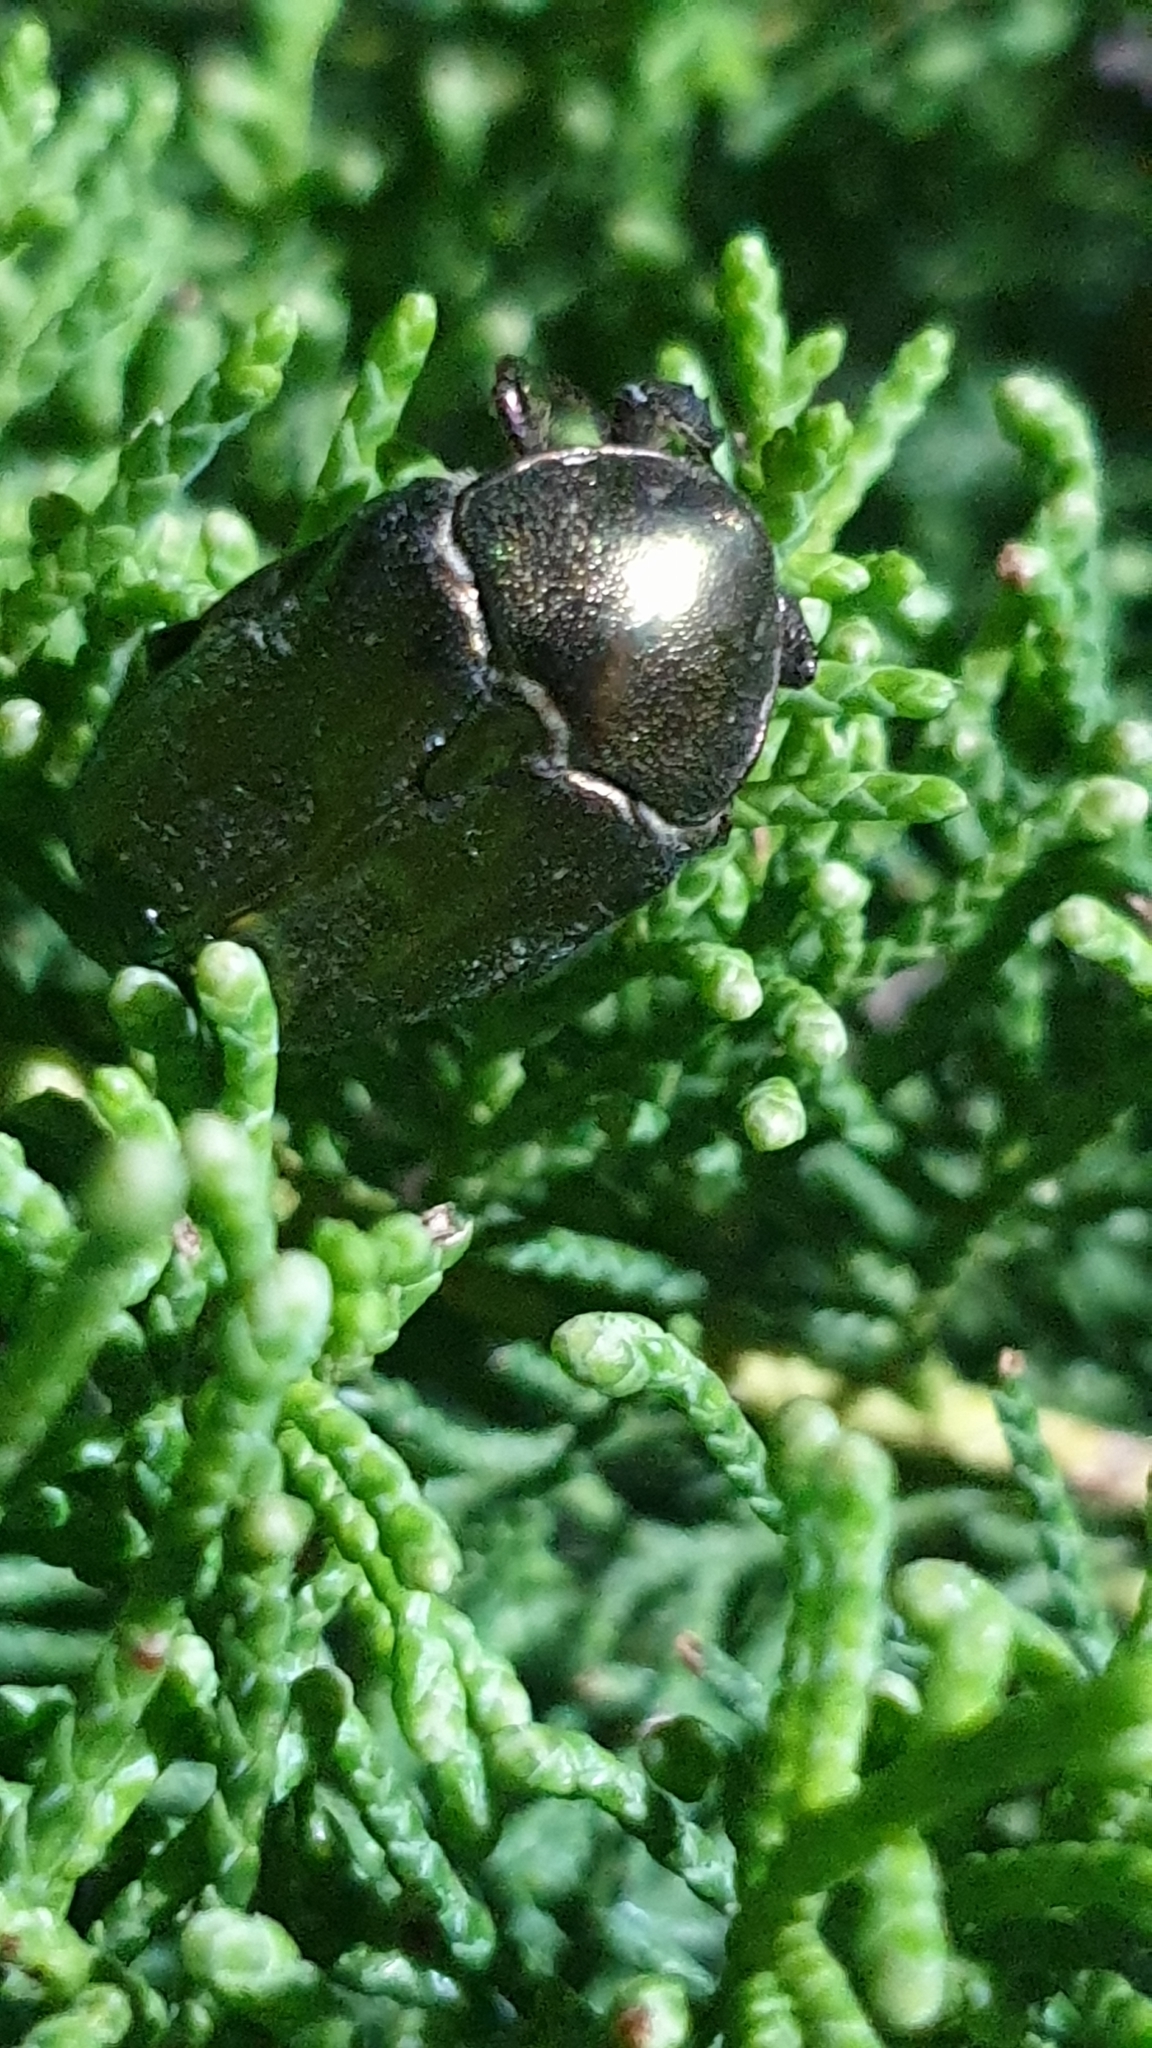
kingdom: Animalia
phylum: Arthropoda
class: Insecta
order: Coleoptera
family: Scarabaeidae
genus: Protaetia
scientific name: Protaetia cuprea
